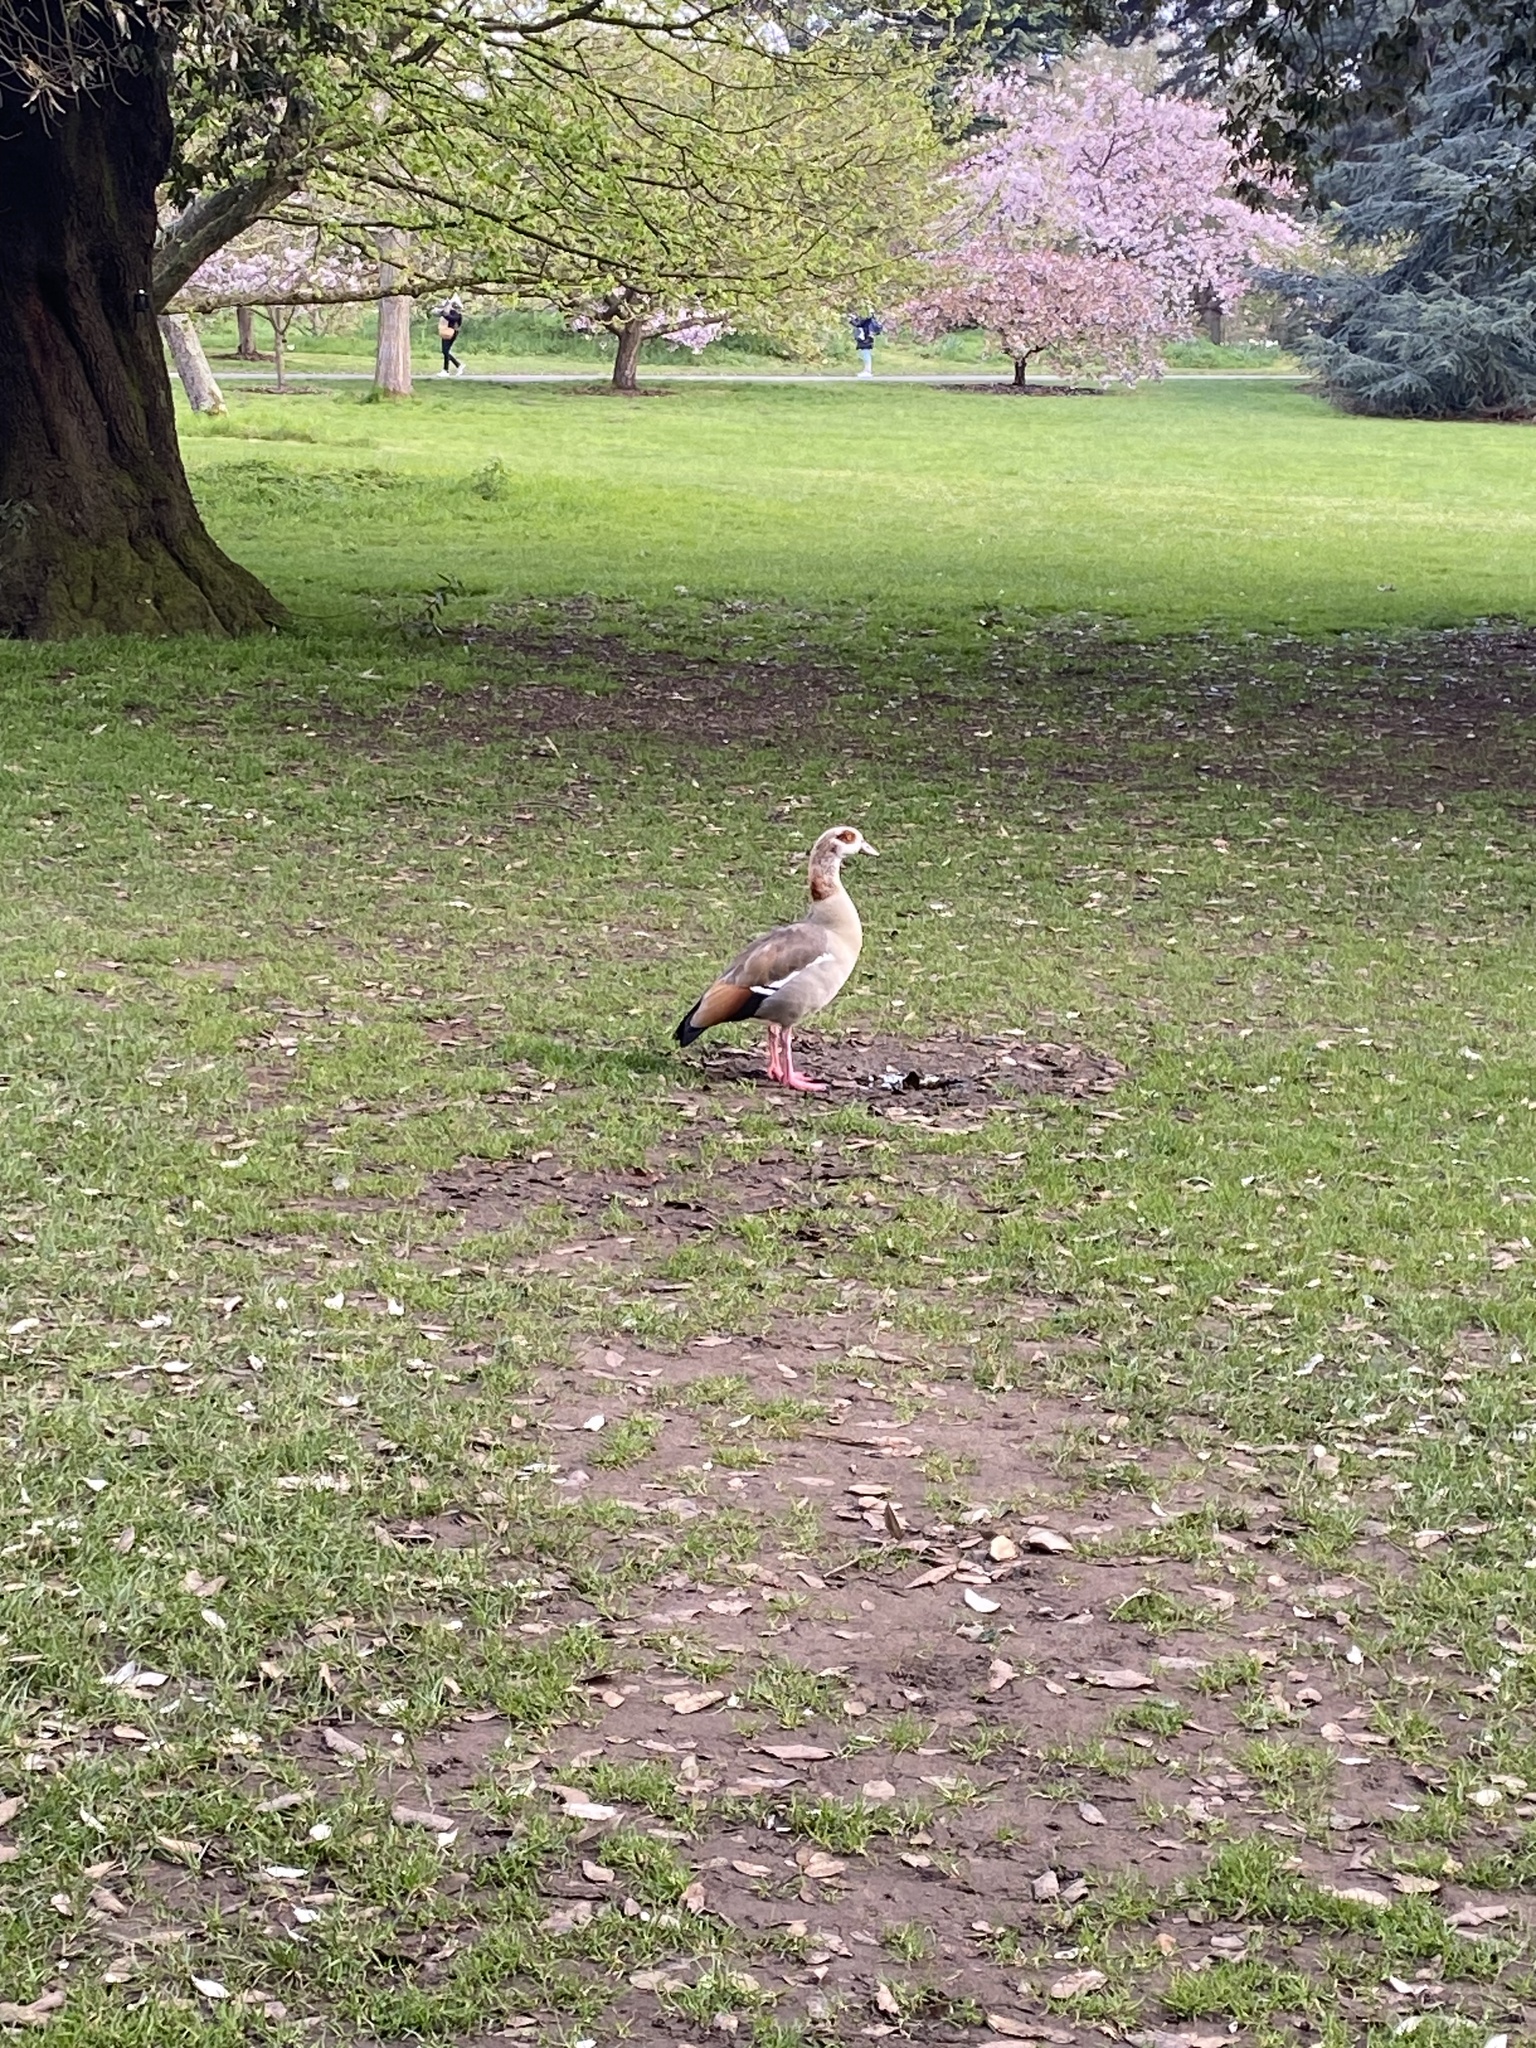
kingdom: Animalia
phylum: Chordata
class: Aves
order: Anseriformes
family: Anatidae
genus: Alopochen
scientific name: Alopochen aegyptiaca
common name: Egyptian goose
